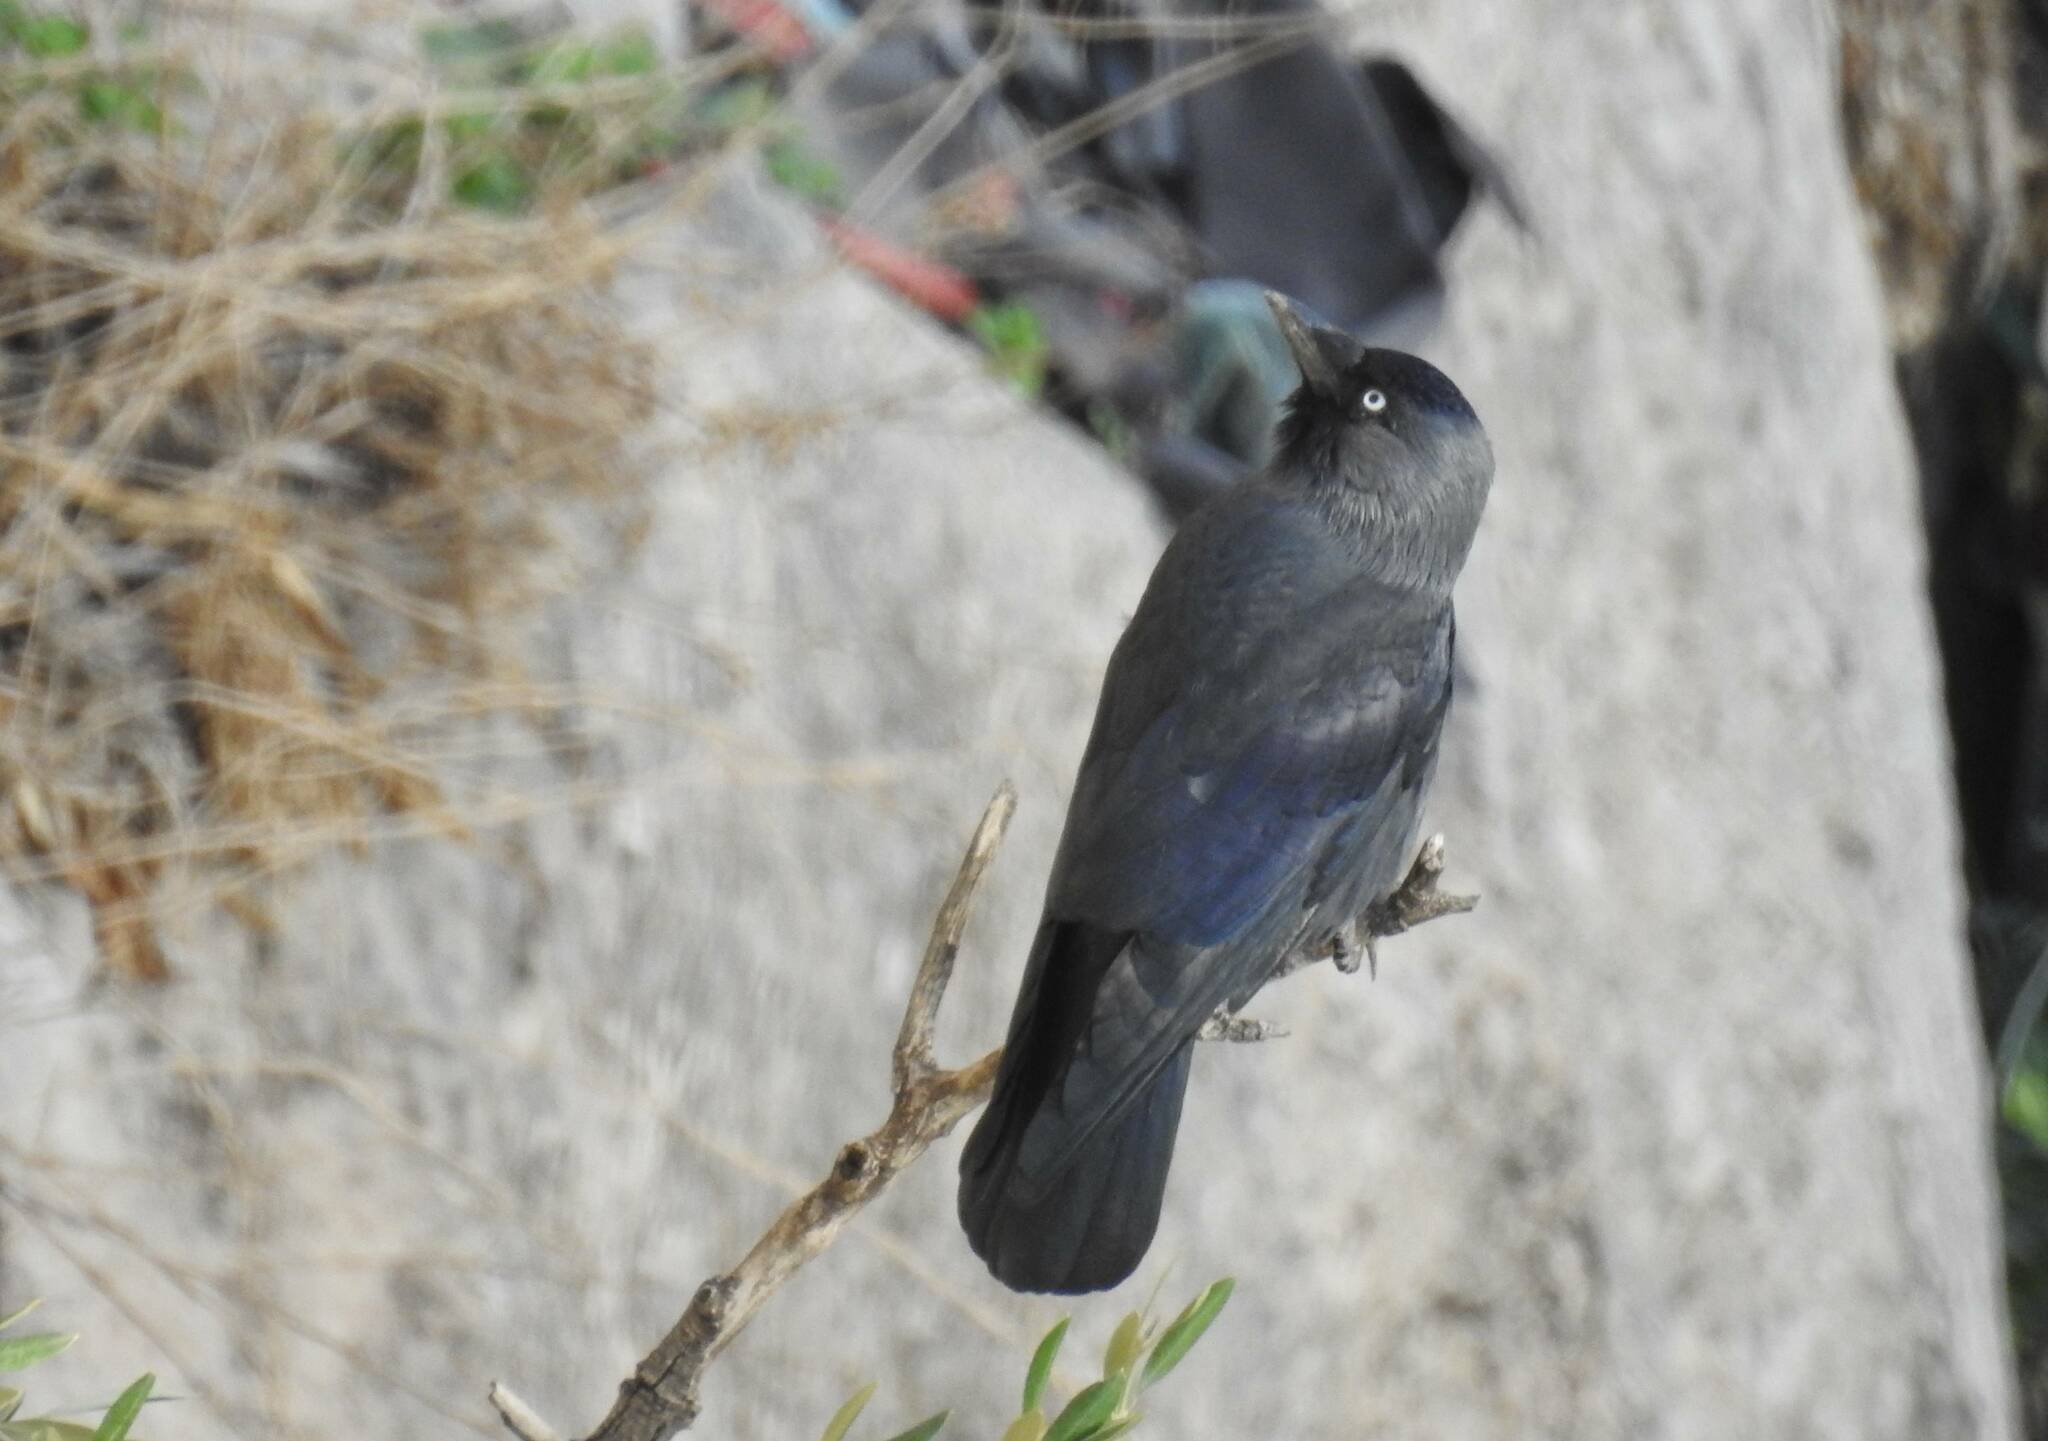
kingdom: Animalia
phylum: Chordata
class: Aves
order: Passeriformes
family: Corvidae
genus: Coloeus
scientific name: Coloeus monedula
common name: Western jackdaw
